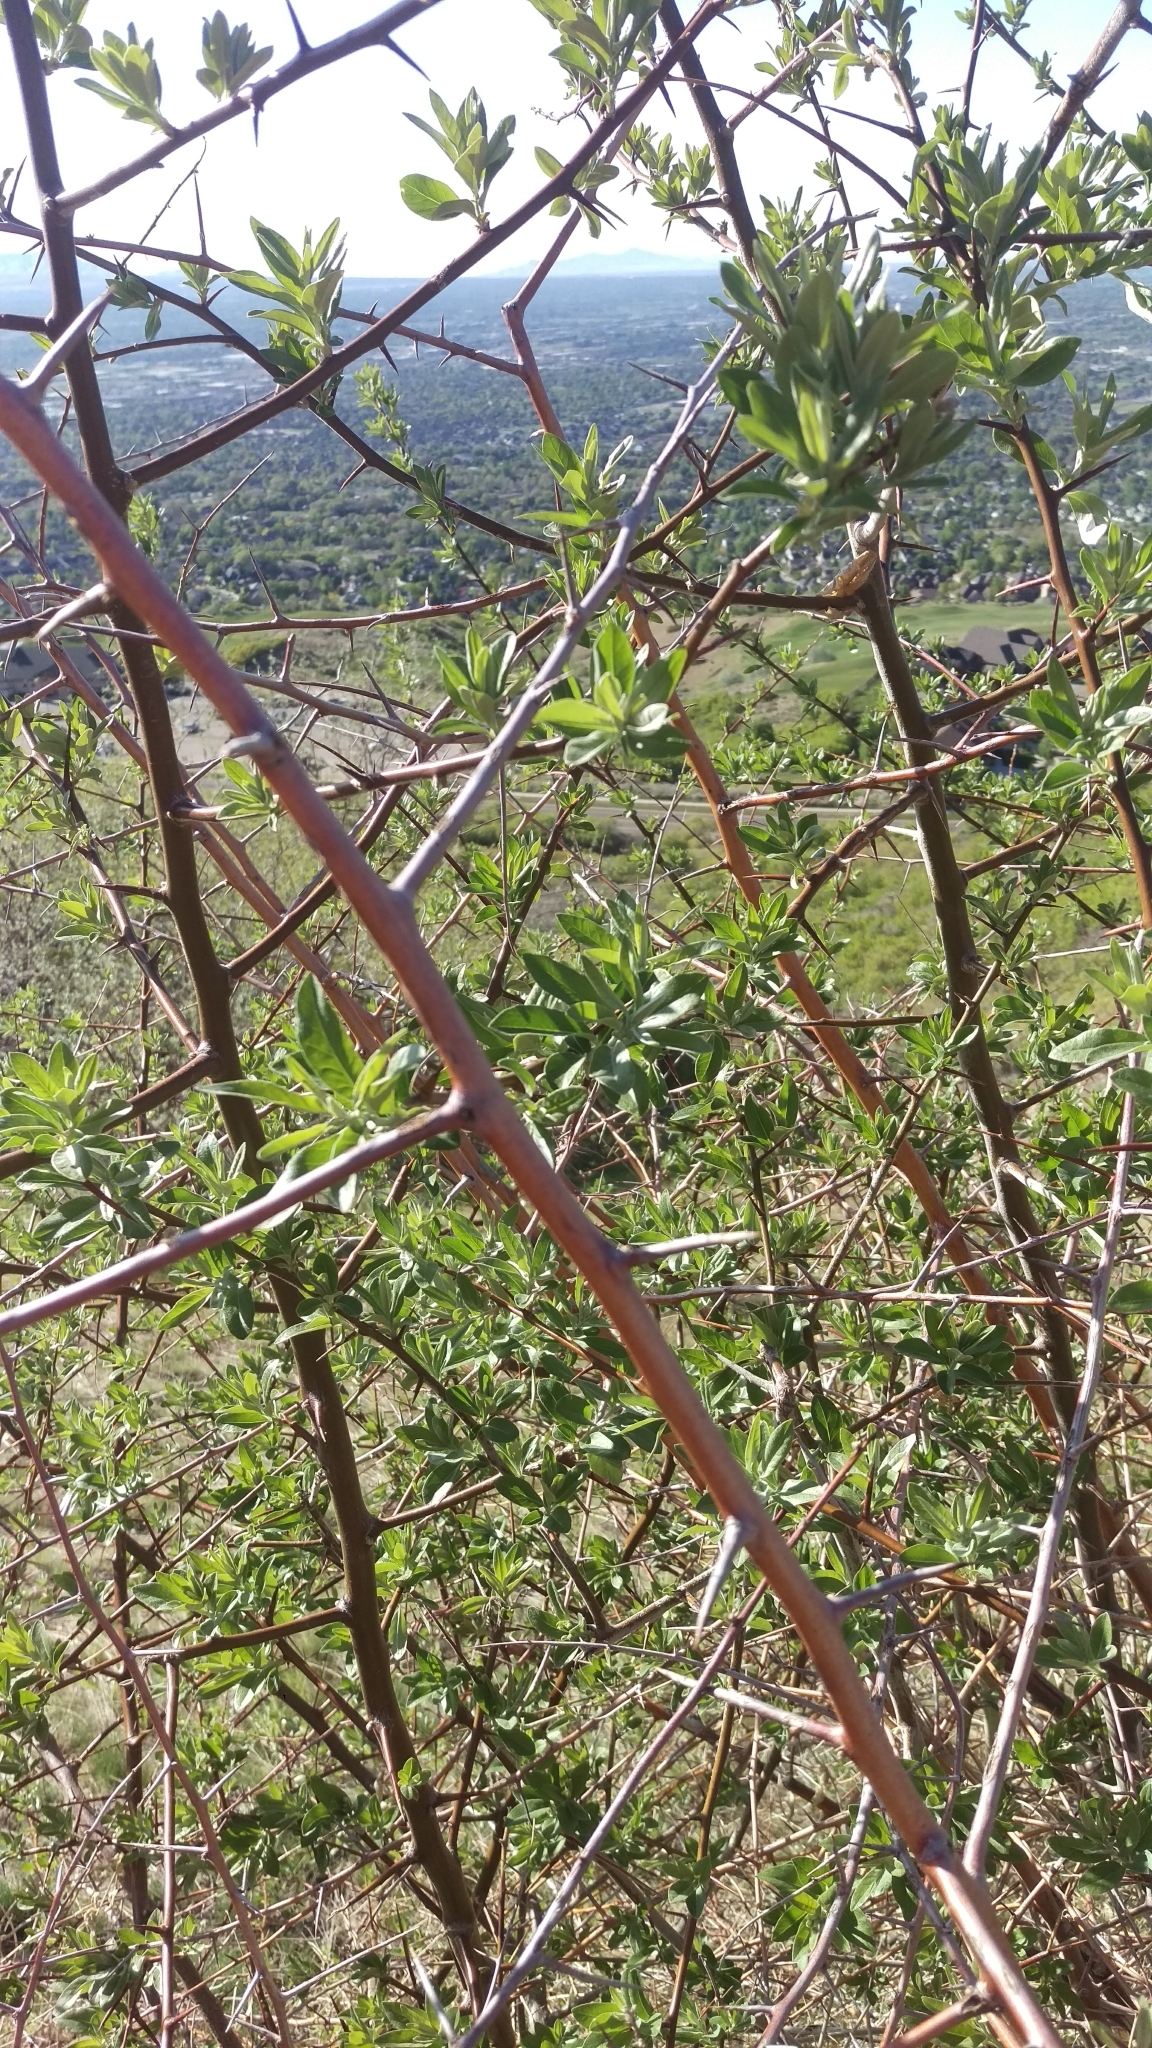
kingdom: Plantae
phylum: Tracheophyta
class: Magnoliopsida
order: Rosales
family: Elaeagnaceae
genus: Elaeagnus
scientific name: Elaeagnus angustifolia
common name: Russian olive
